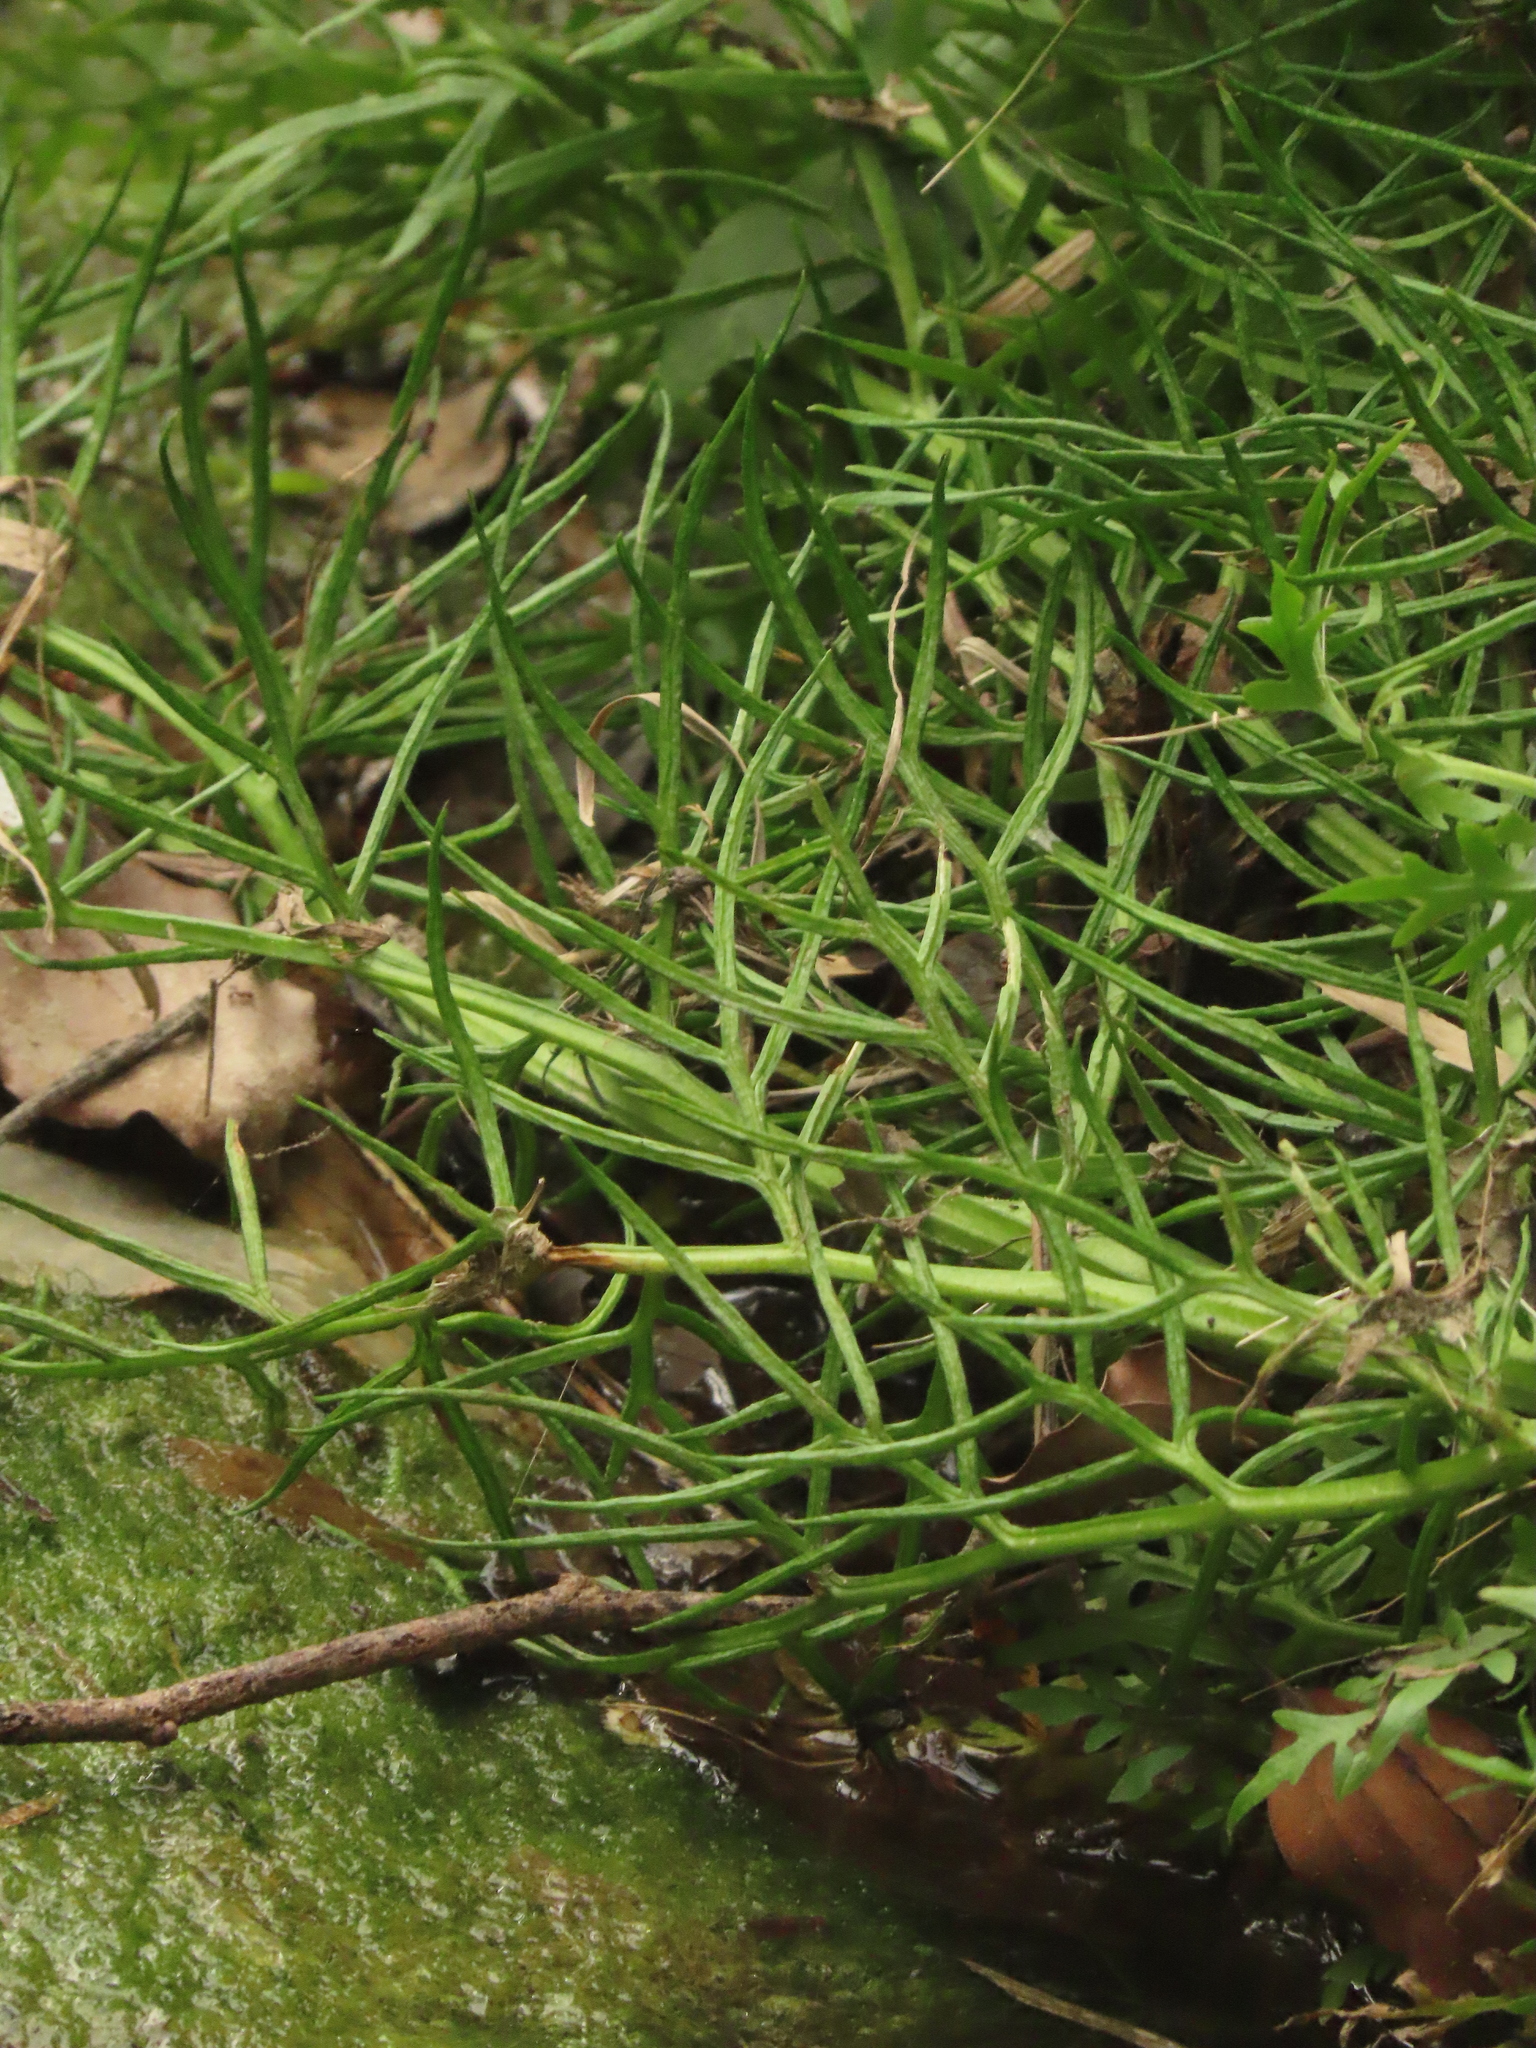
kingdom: Plantae
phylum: Tracheophyta
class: Polypodiopsida
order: Polypodiales
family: Pteridaceae
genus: Ceratopteris
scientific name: Ceratopteris thalictroides
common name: Water fern
